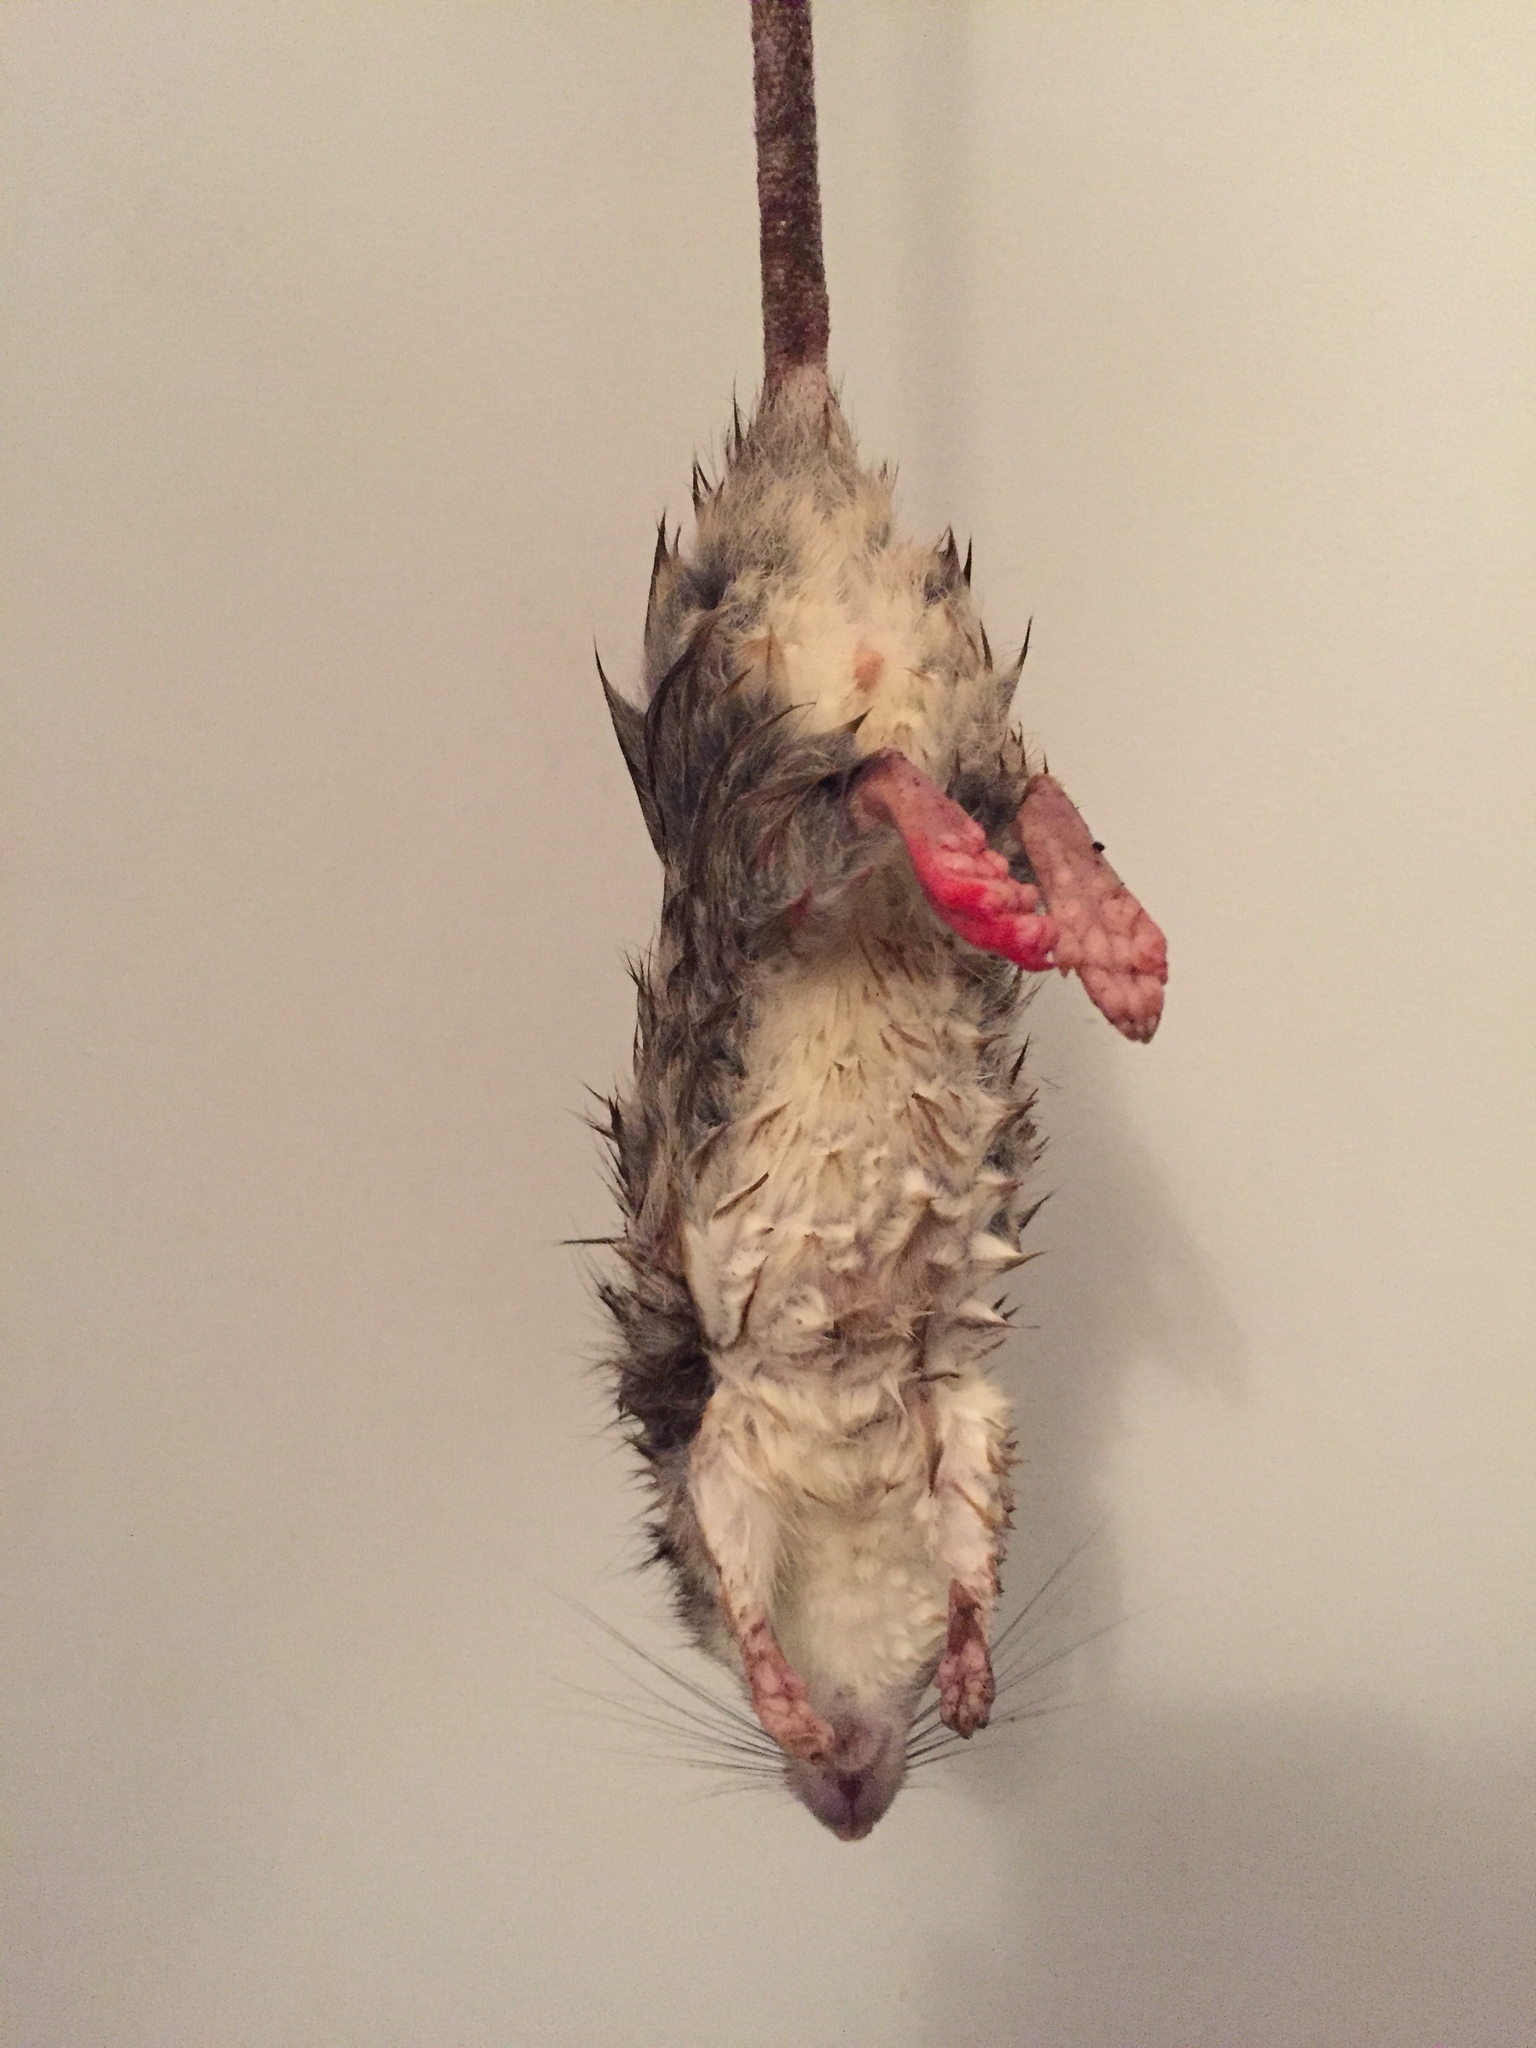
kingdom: Animalia
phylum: Chordata
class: Mammalia
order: Rodentia
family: Muridae
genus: Rattus
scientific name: Rattus rattus
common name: Black rat
